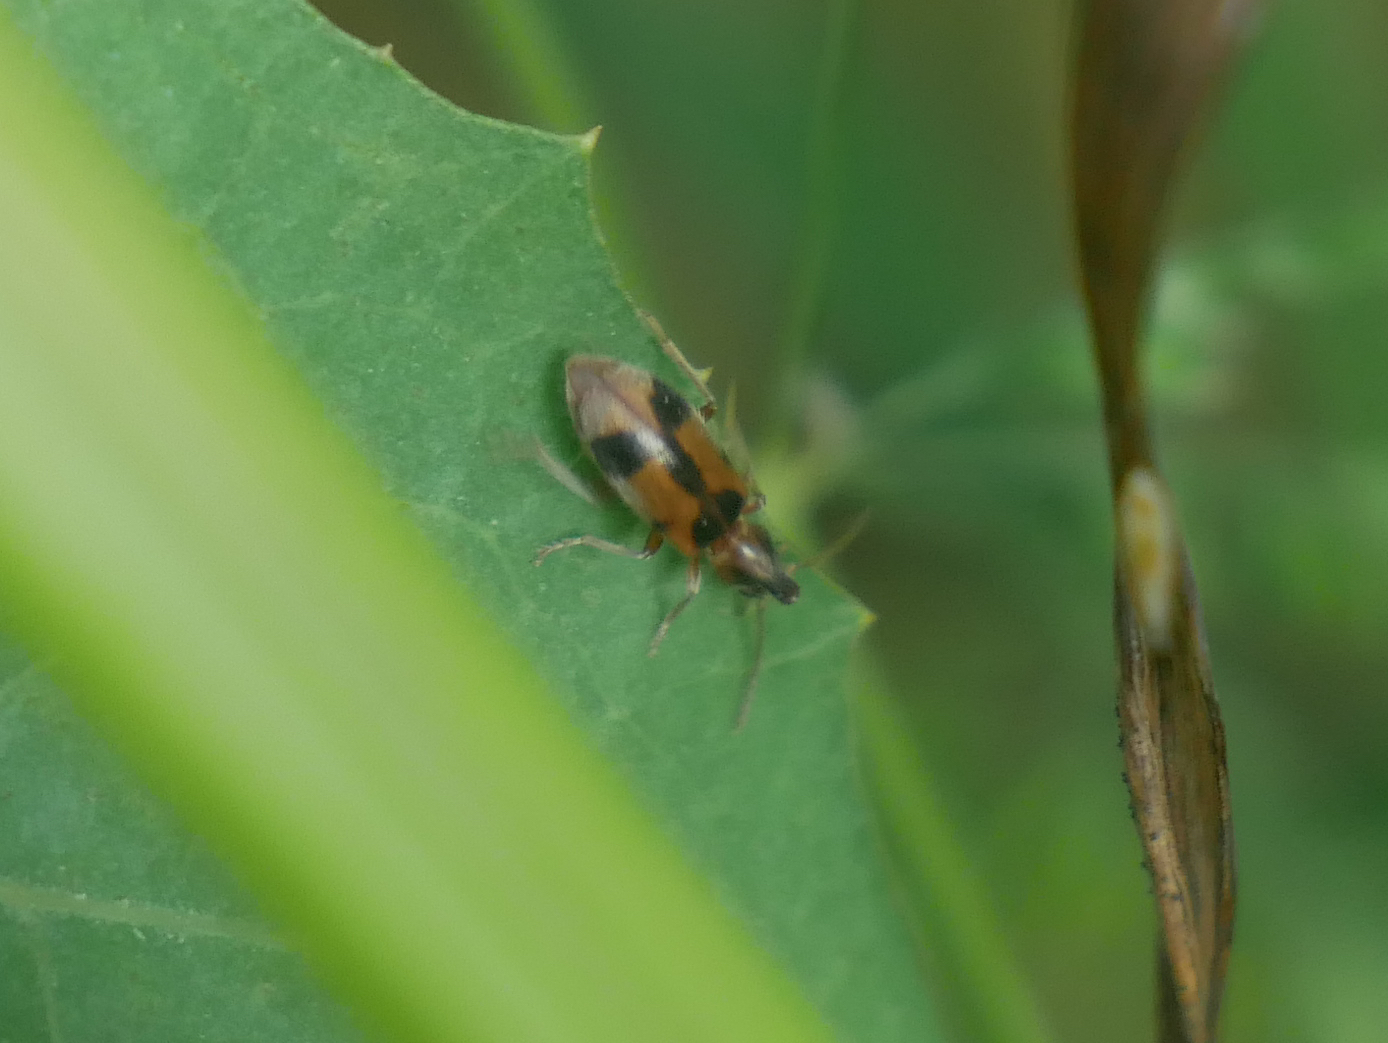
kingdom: Animalia
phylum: Arthropoda
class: Insecta
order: Coleoptera
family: Anthicidae
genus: Notoxus
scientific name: Notoxus monoceros
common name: Monoceros beetle
